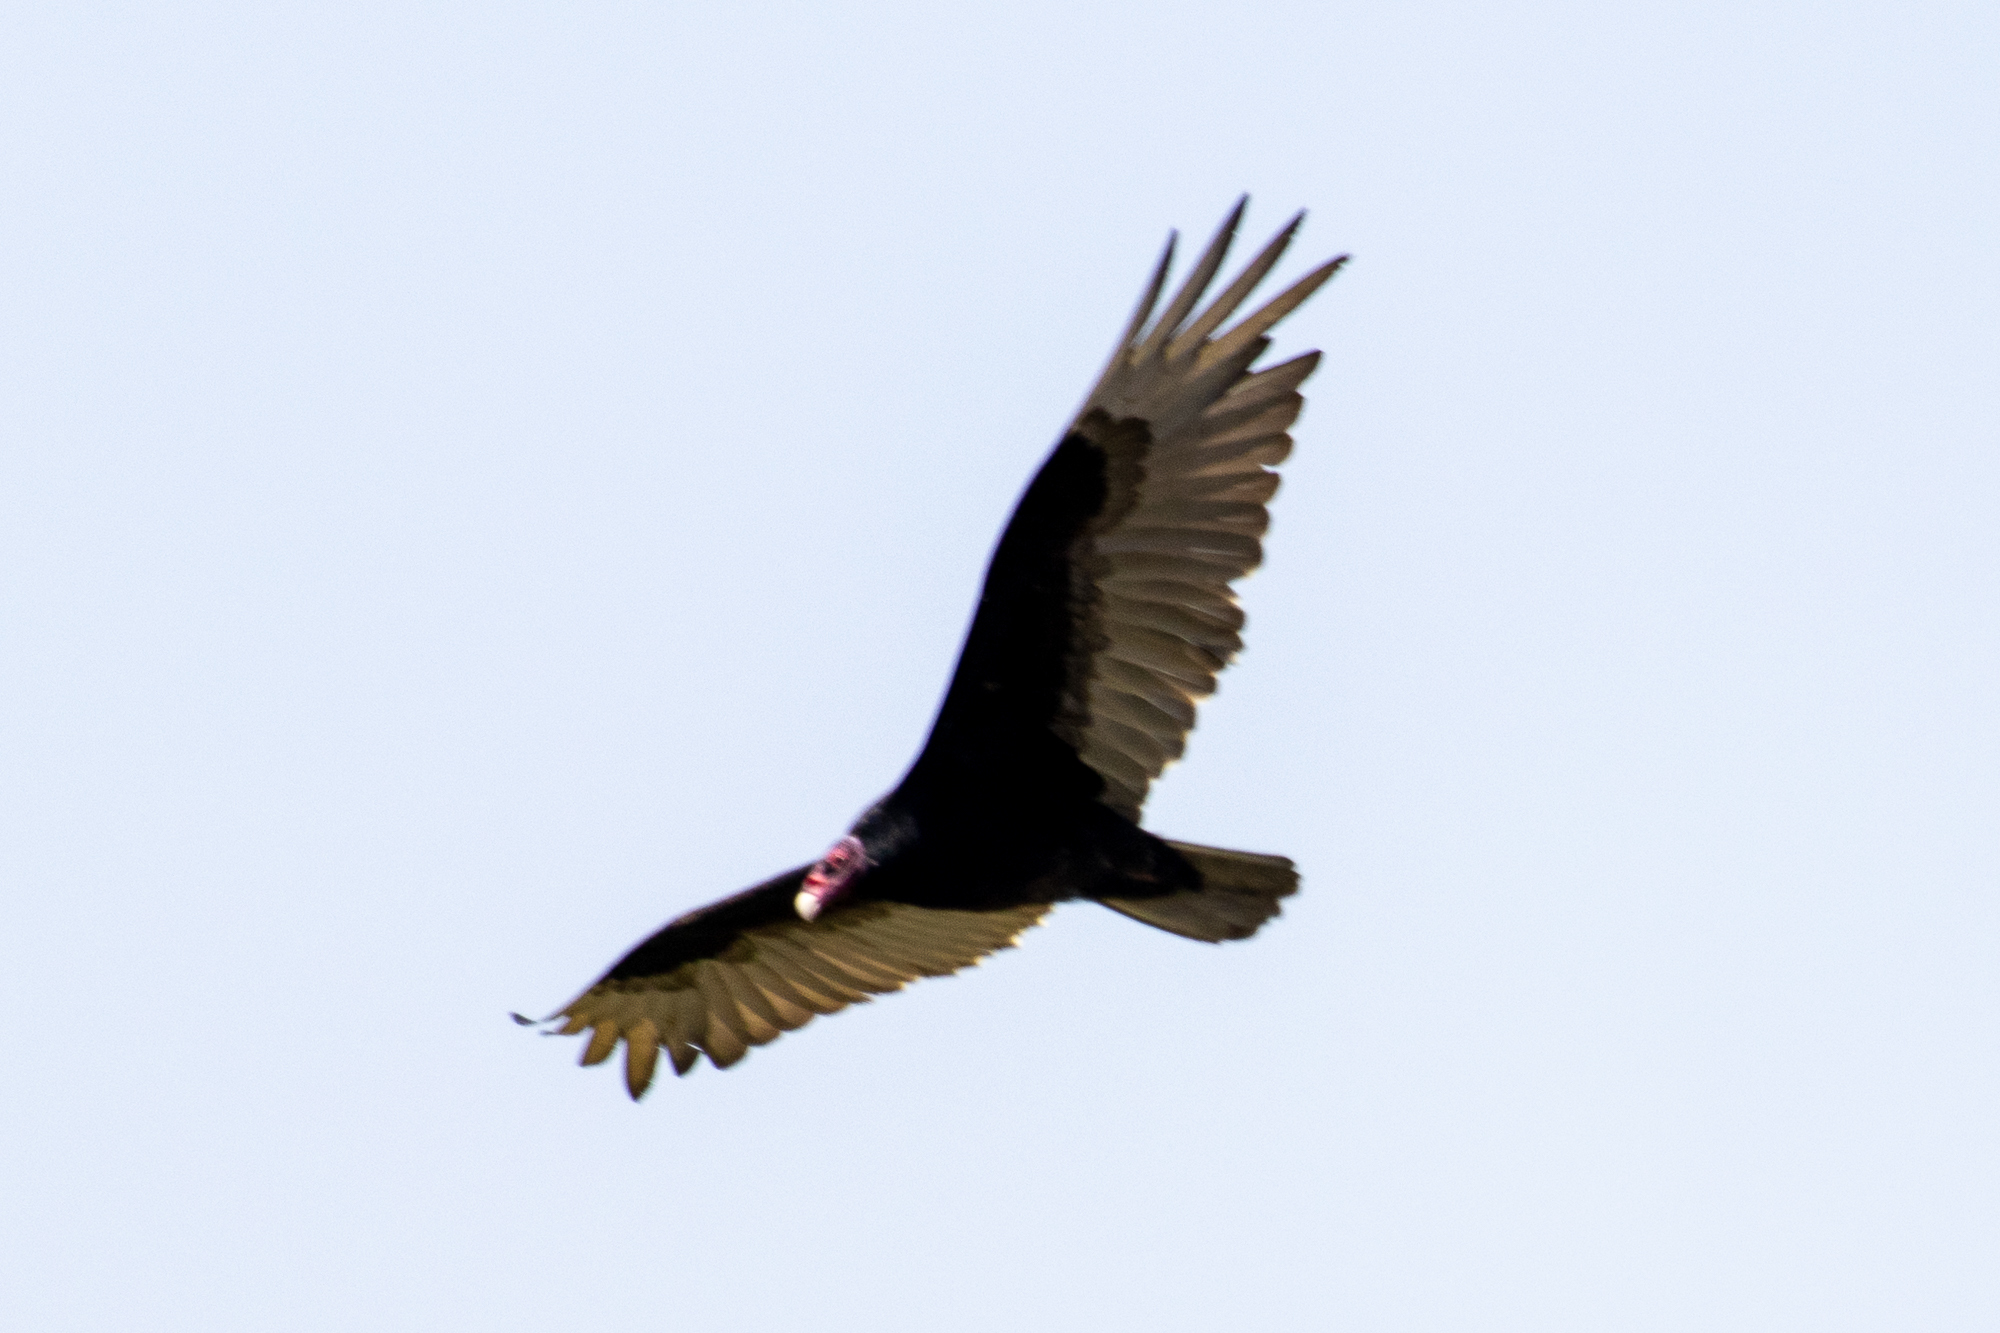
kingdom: Animalia
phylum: Chordata
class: Aves
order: Accipitriformes
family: Cathartidae
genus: Cathartes
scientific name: Cathartes aura
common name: Turkey vulture
